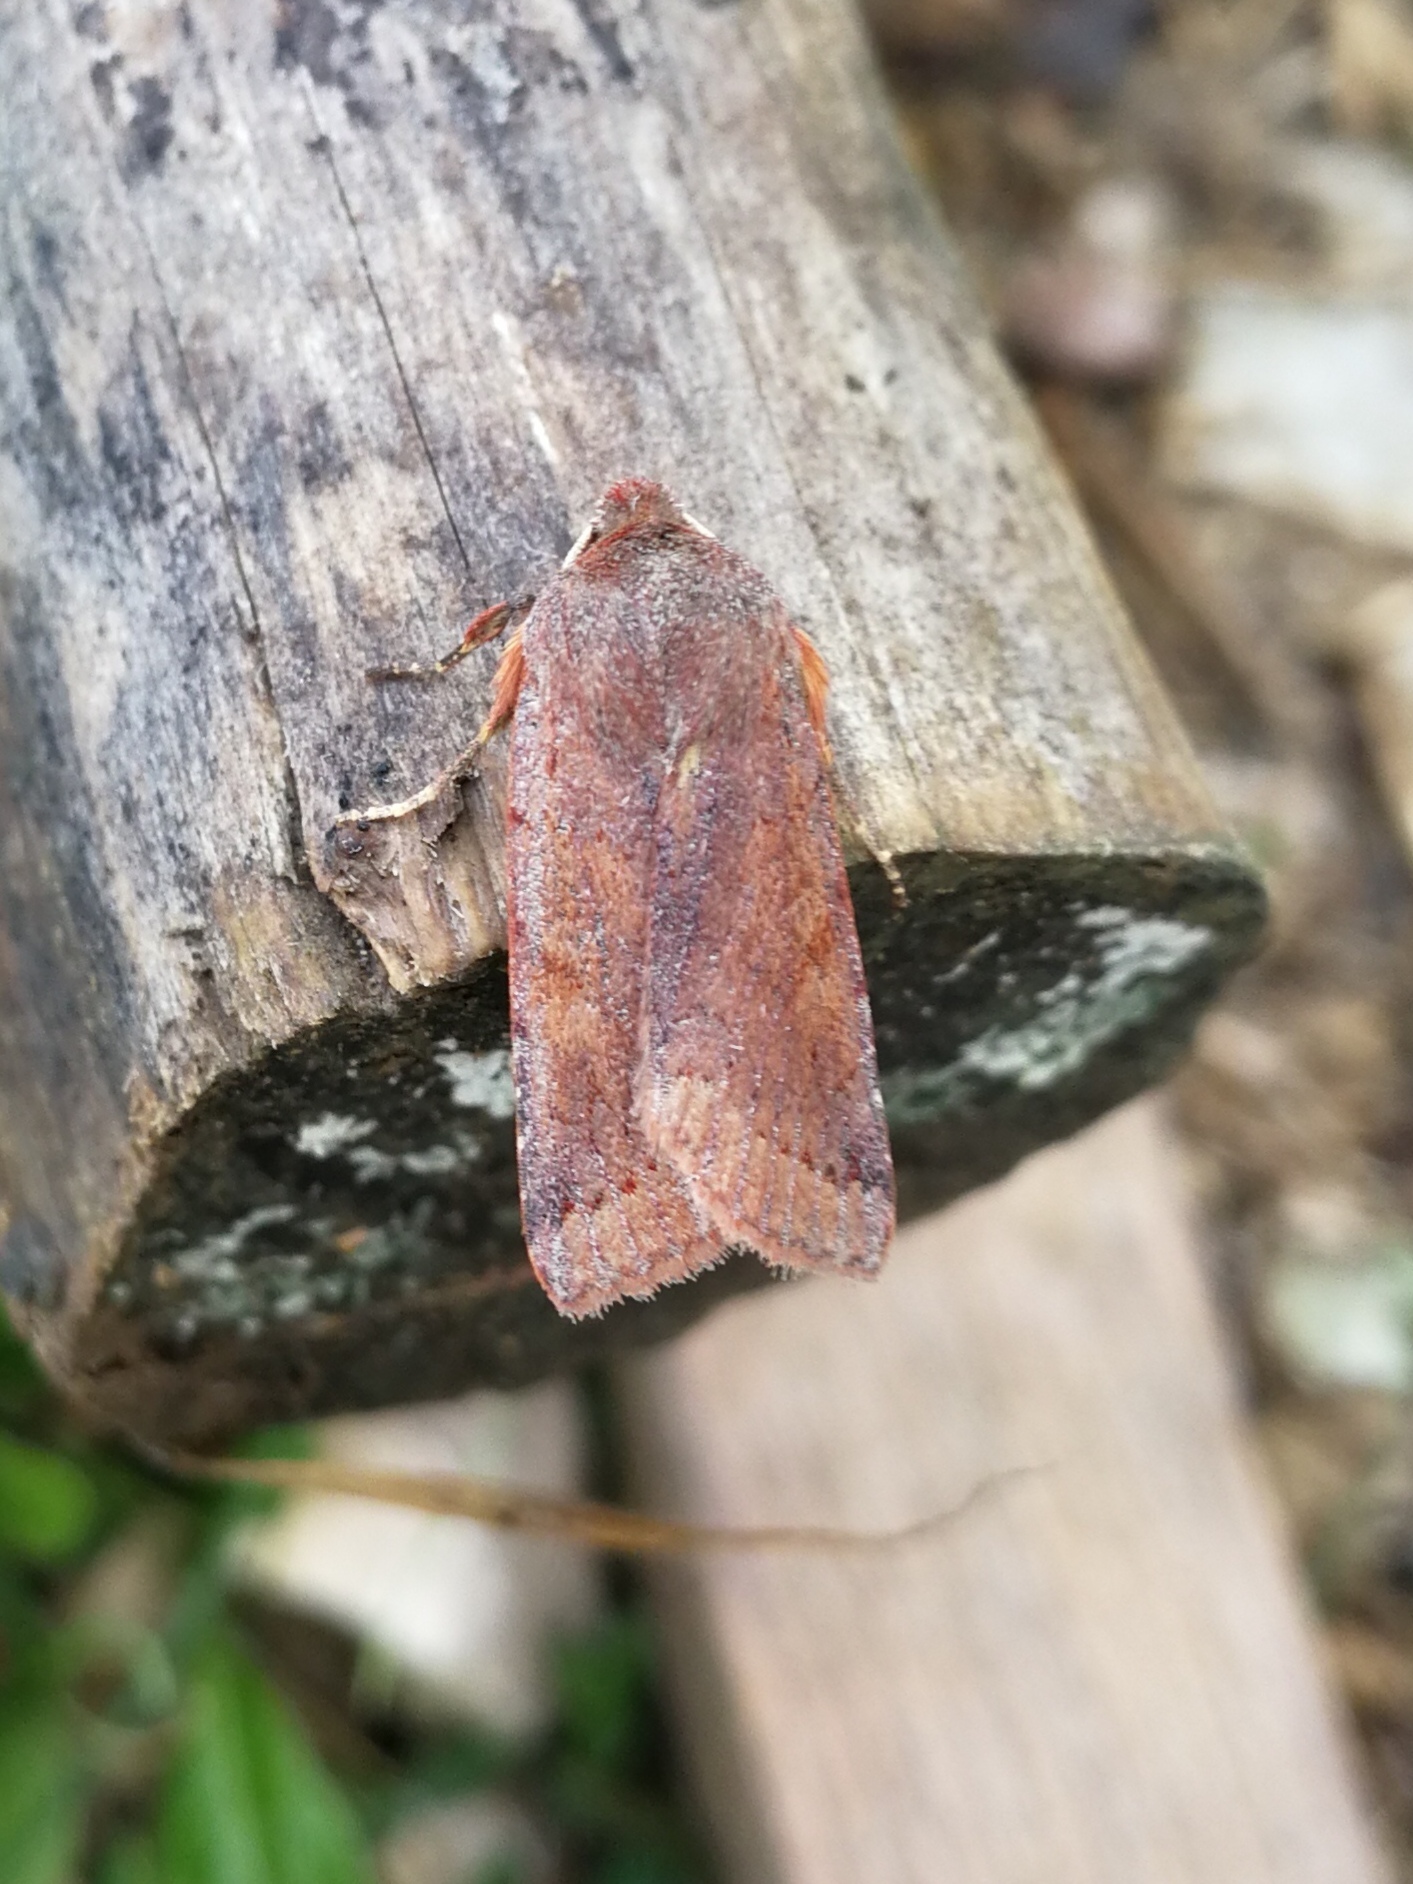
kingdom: Animalia
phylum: Arthropoda
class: Insecta
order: Lepidoptera
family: Noctuidae
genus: Agrochola
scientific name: Agrochola haematidea
